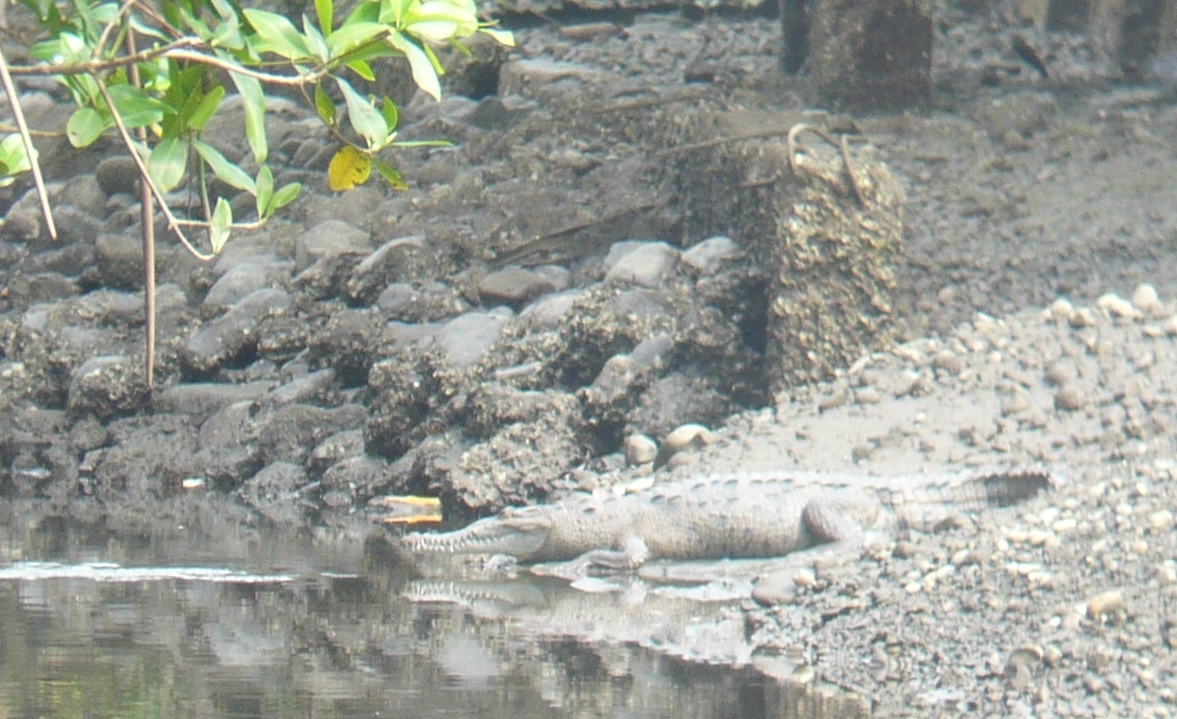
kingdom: Animalia
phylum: Chordata
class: Crocodylia
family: Crocodylidae
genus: Crocodylus
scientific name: Crocodylus acutus
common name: American crocodile
